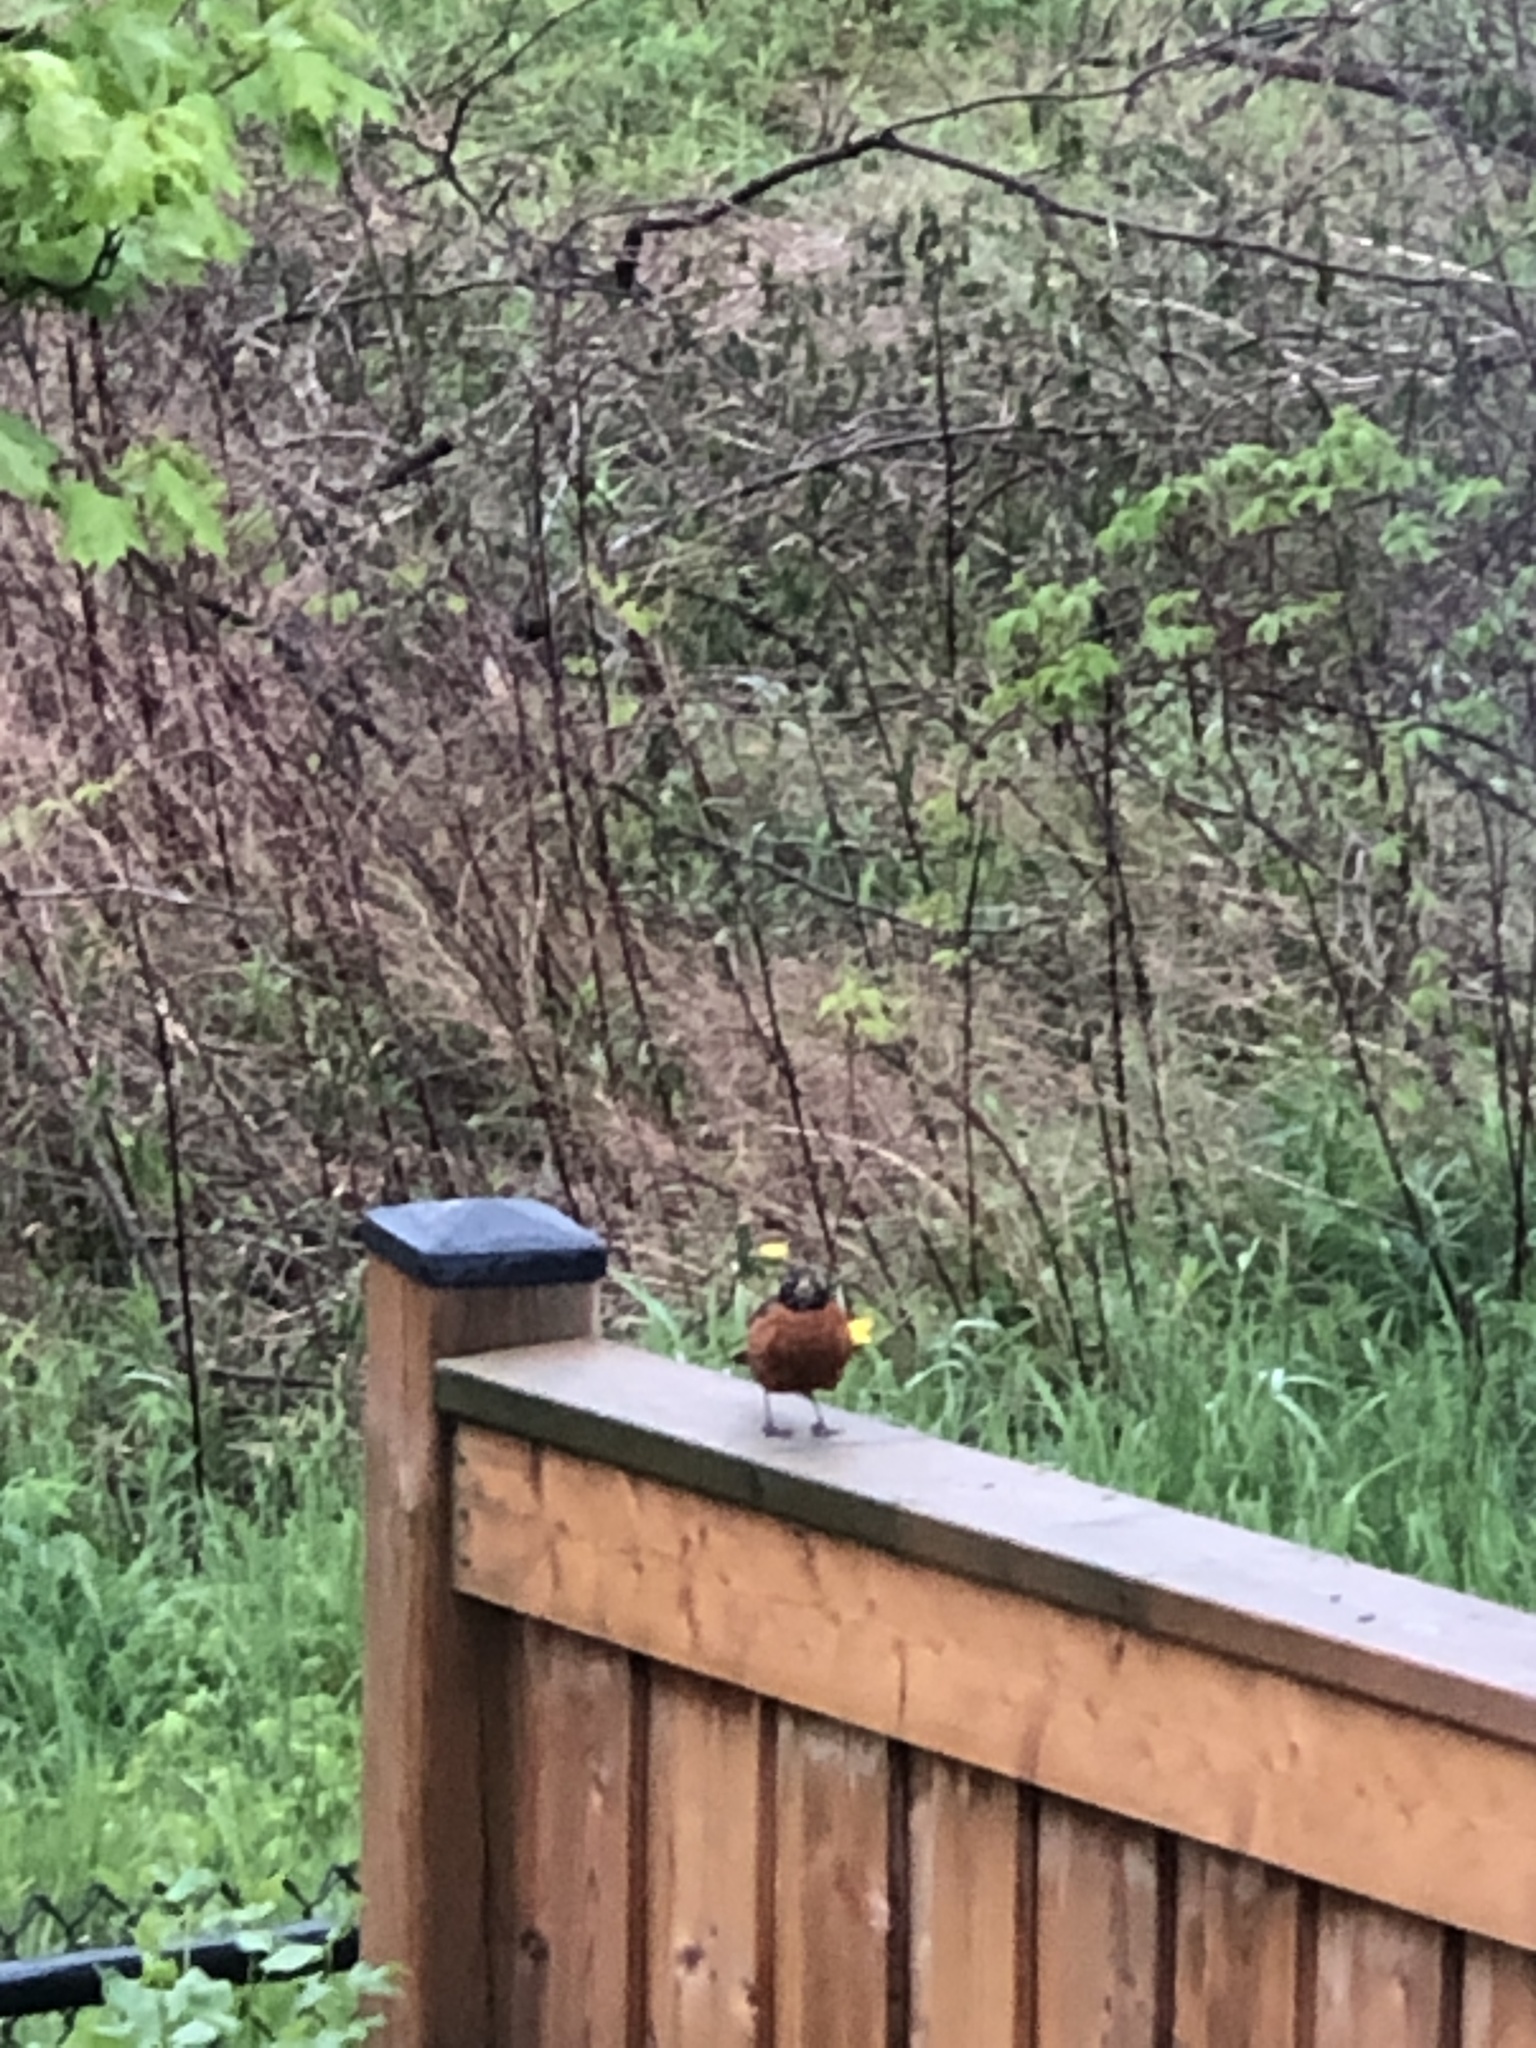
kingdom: Animalia
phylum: Chordata
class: Aves
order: Passeriformes
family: Turdidae
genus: Turdus
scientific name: Turdus migratorius
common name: American robin
